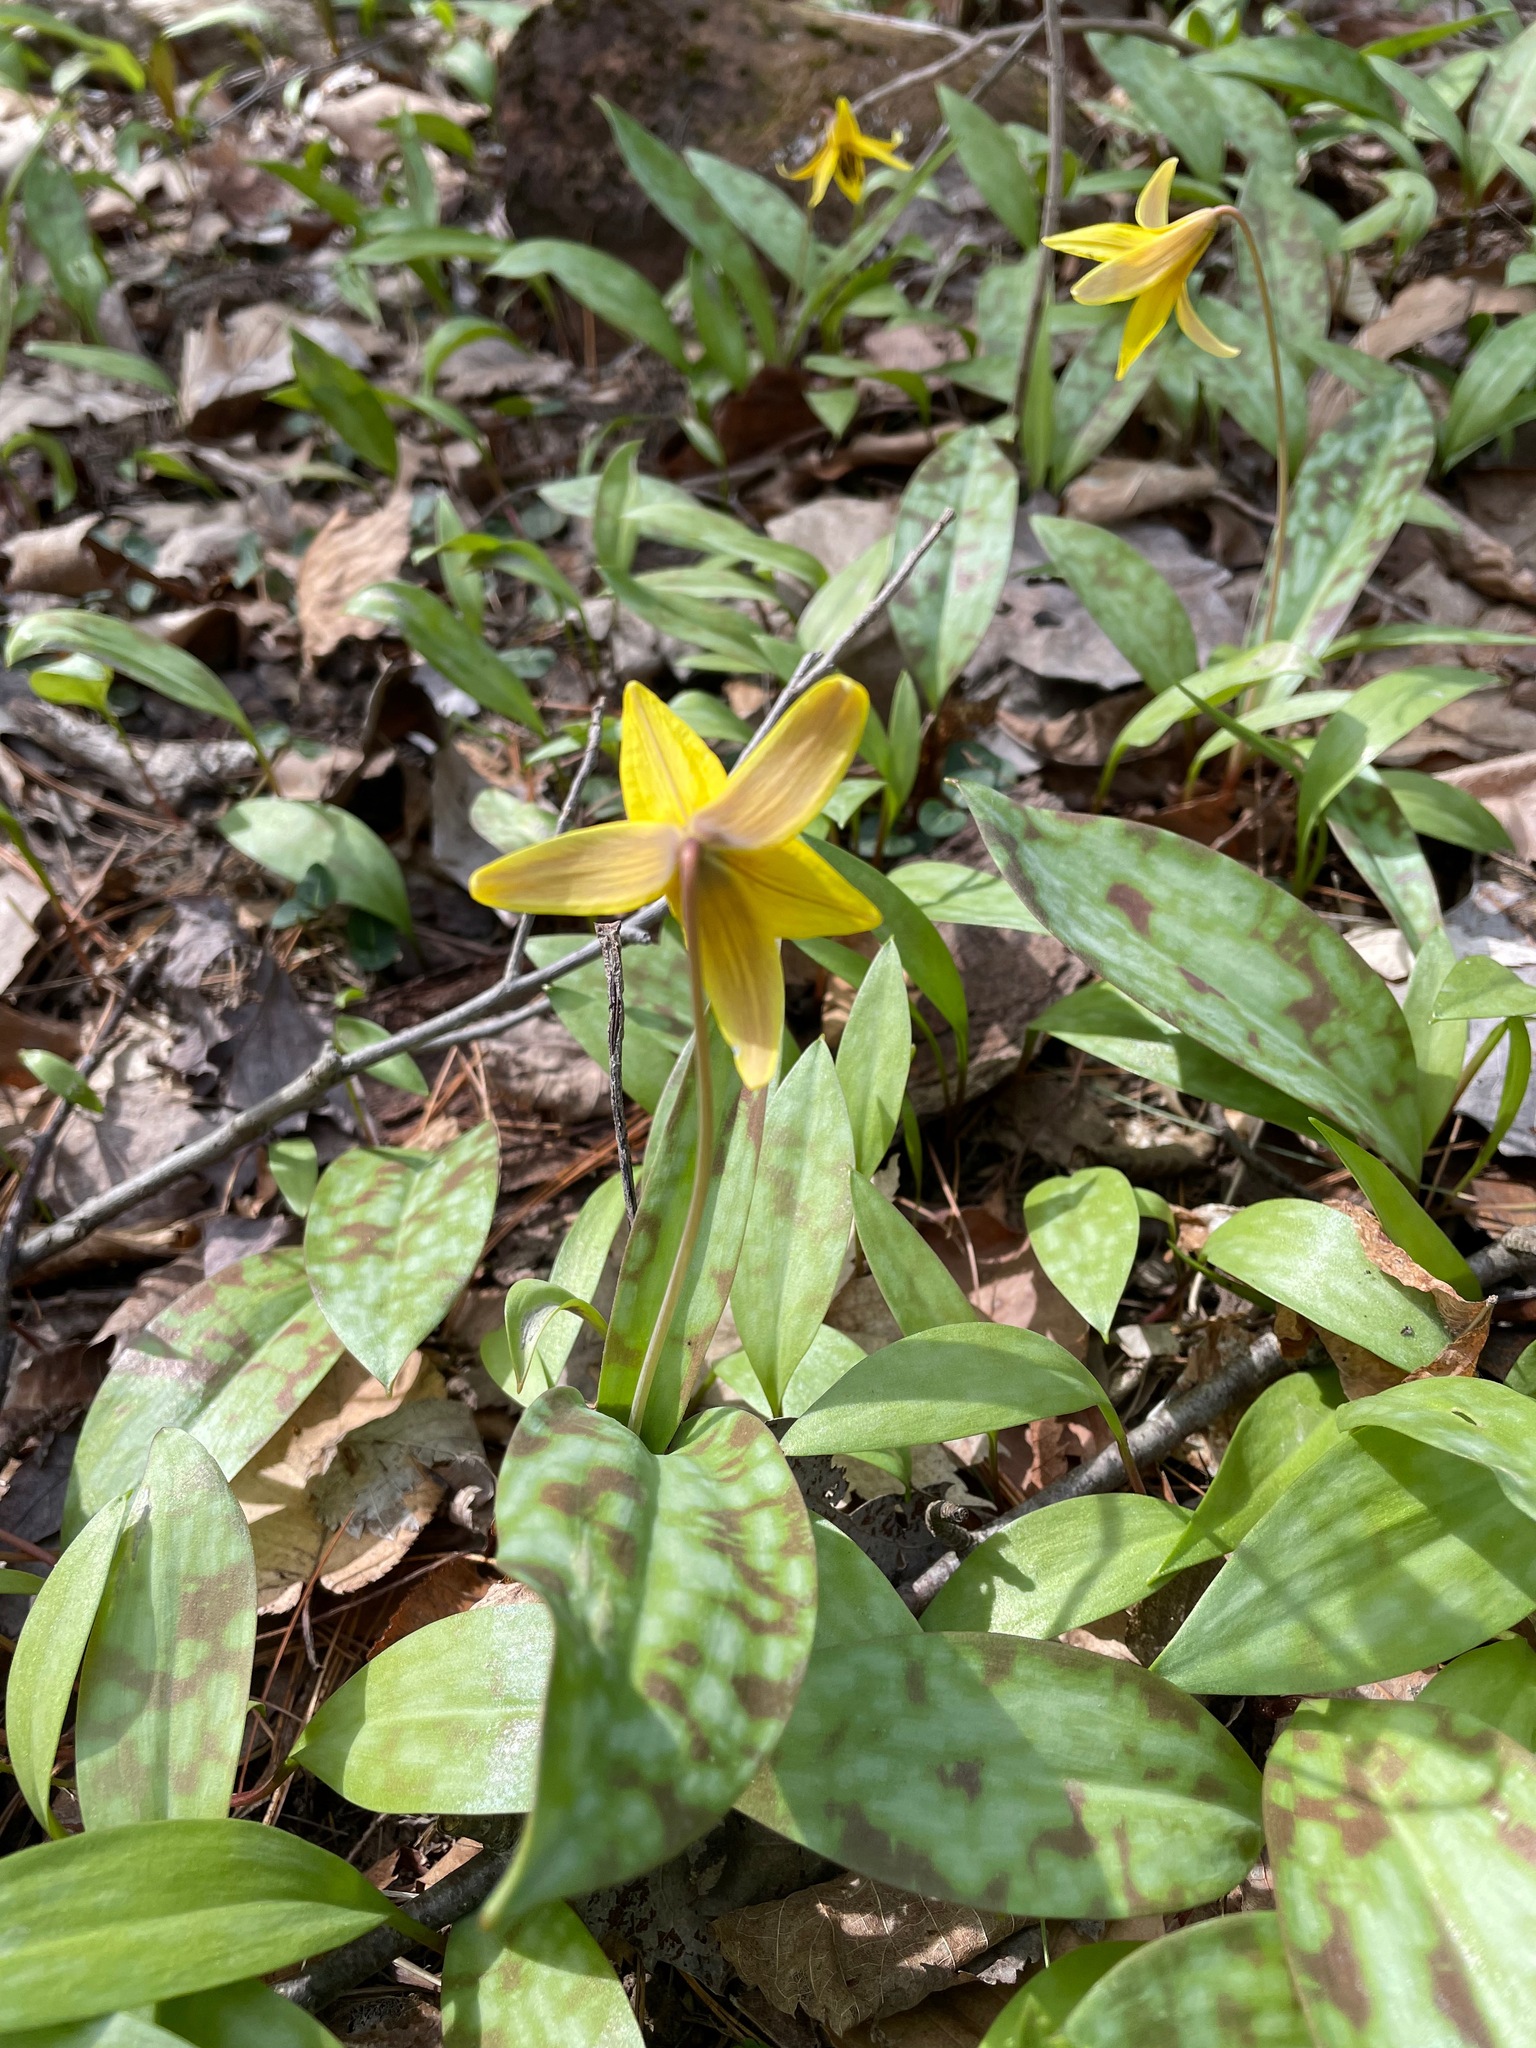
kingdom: Plantae
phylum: Tracheophyta
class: Liliopsida
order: Liliales
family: Liliaceae
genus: Erythronium
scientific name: Erythronium americanum
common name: Yellow adder's-tongue
